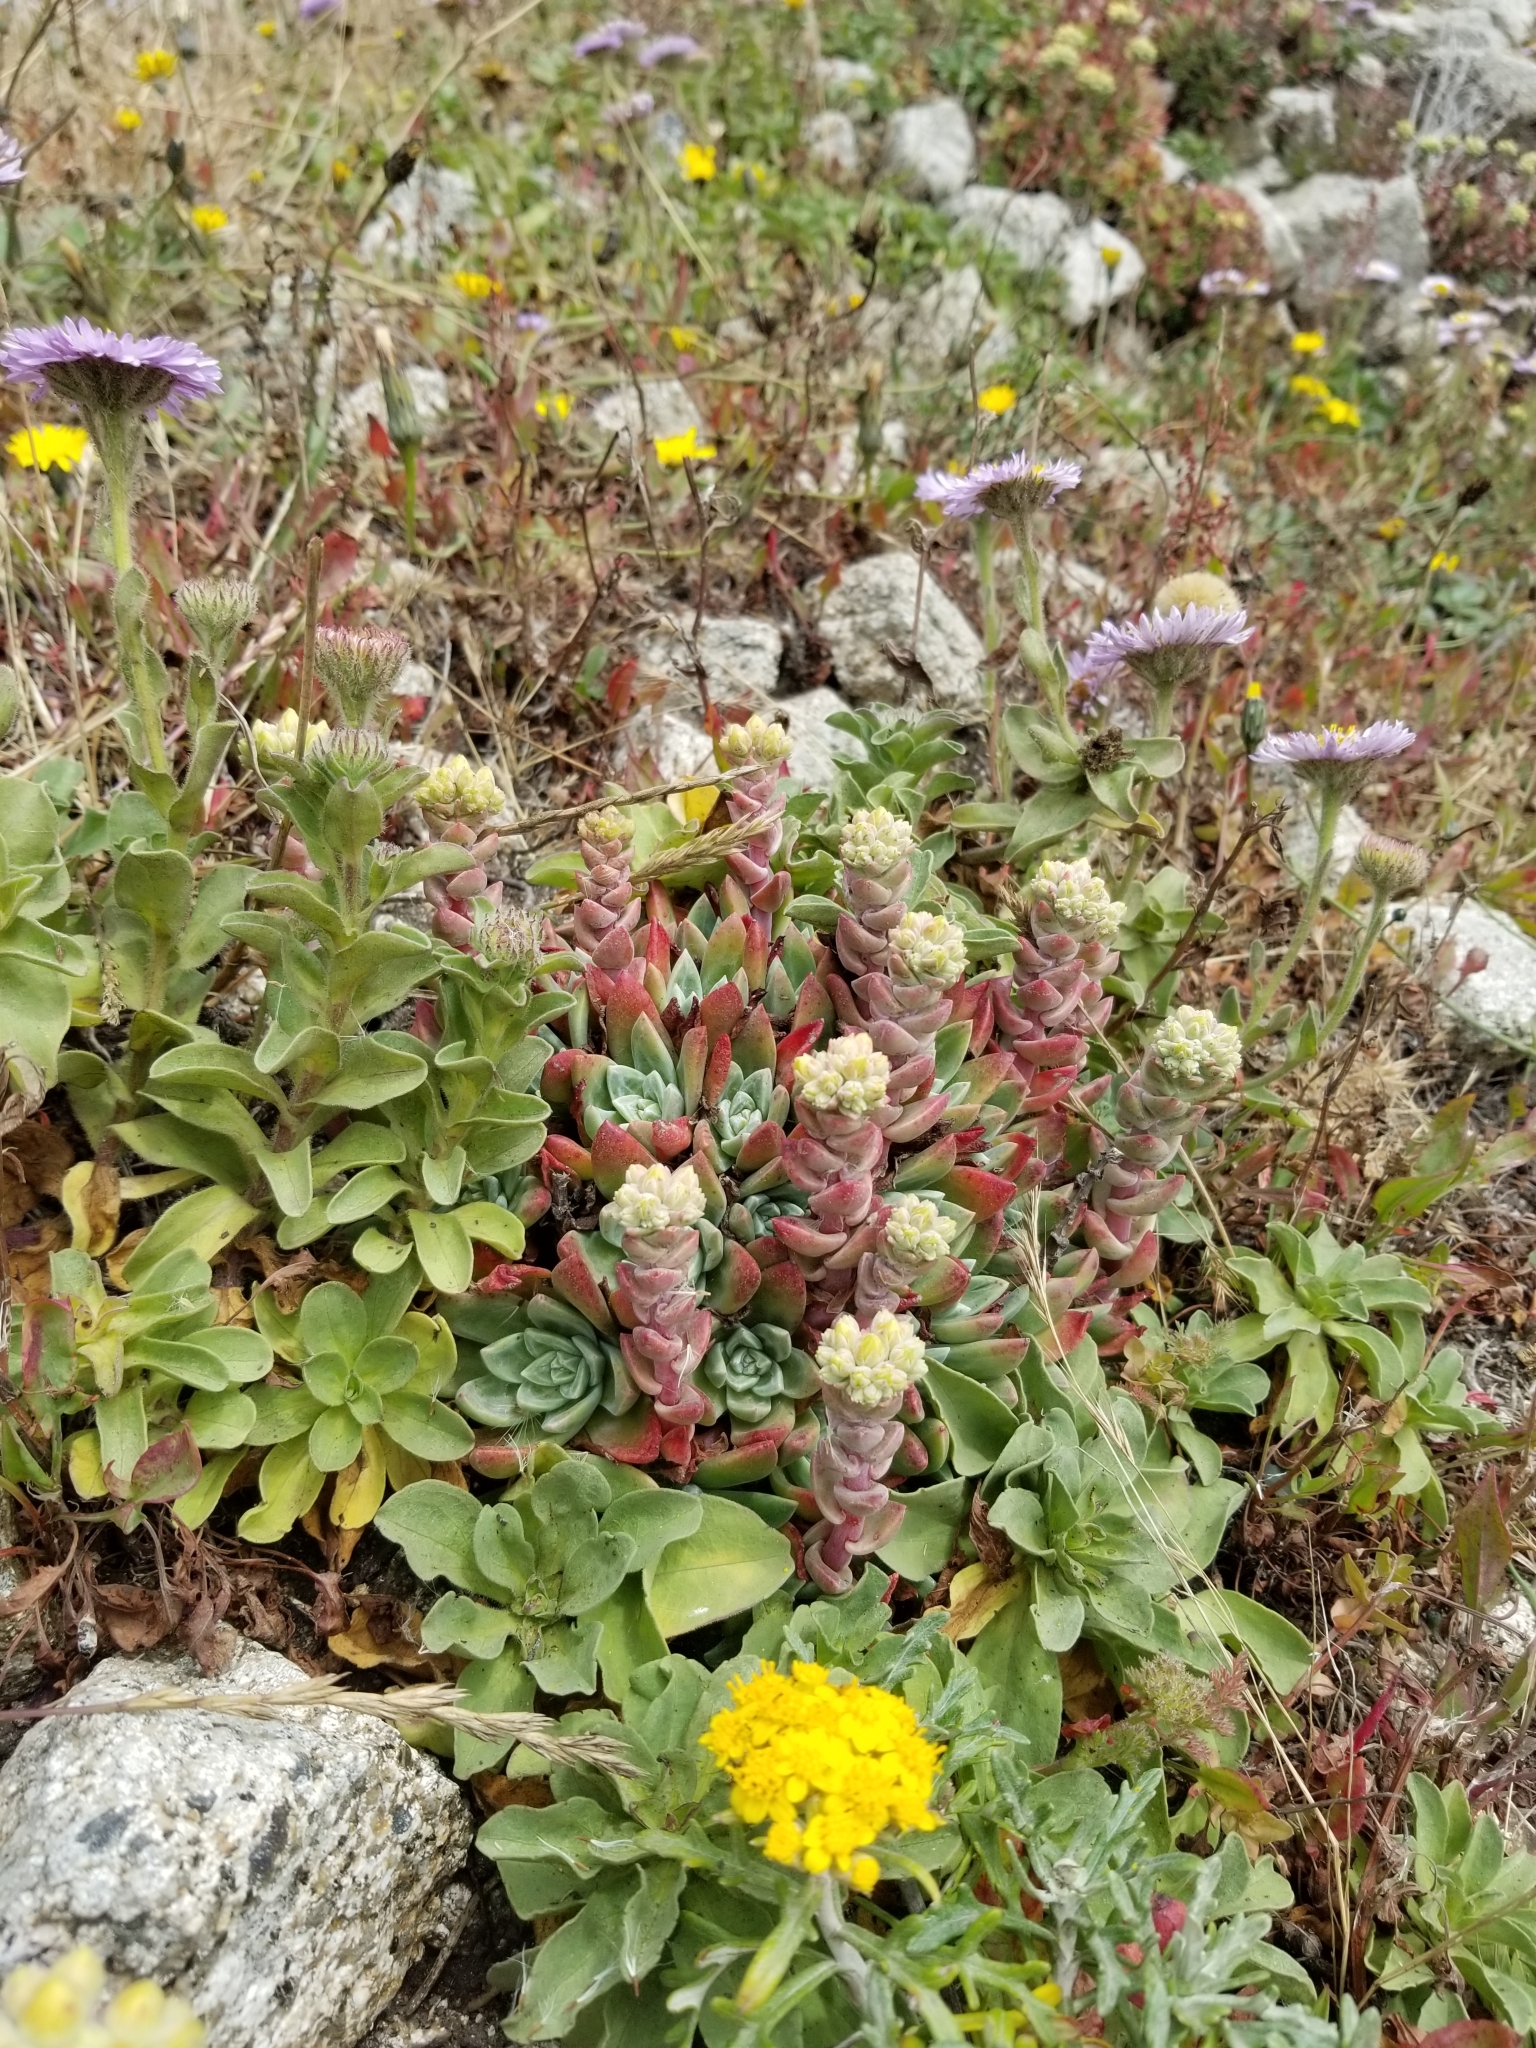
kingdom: Plantae
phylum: Tracheophyta
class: Magnoliopsida
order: Saxifragales
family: Crassulaceae
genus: Dudleya
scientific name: Dudleya farinosa
